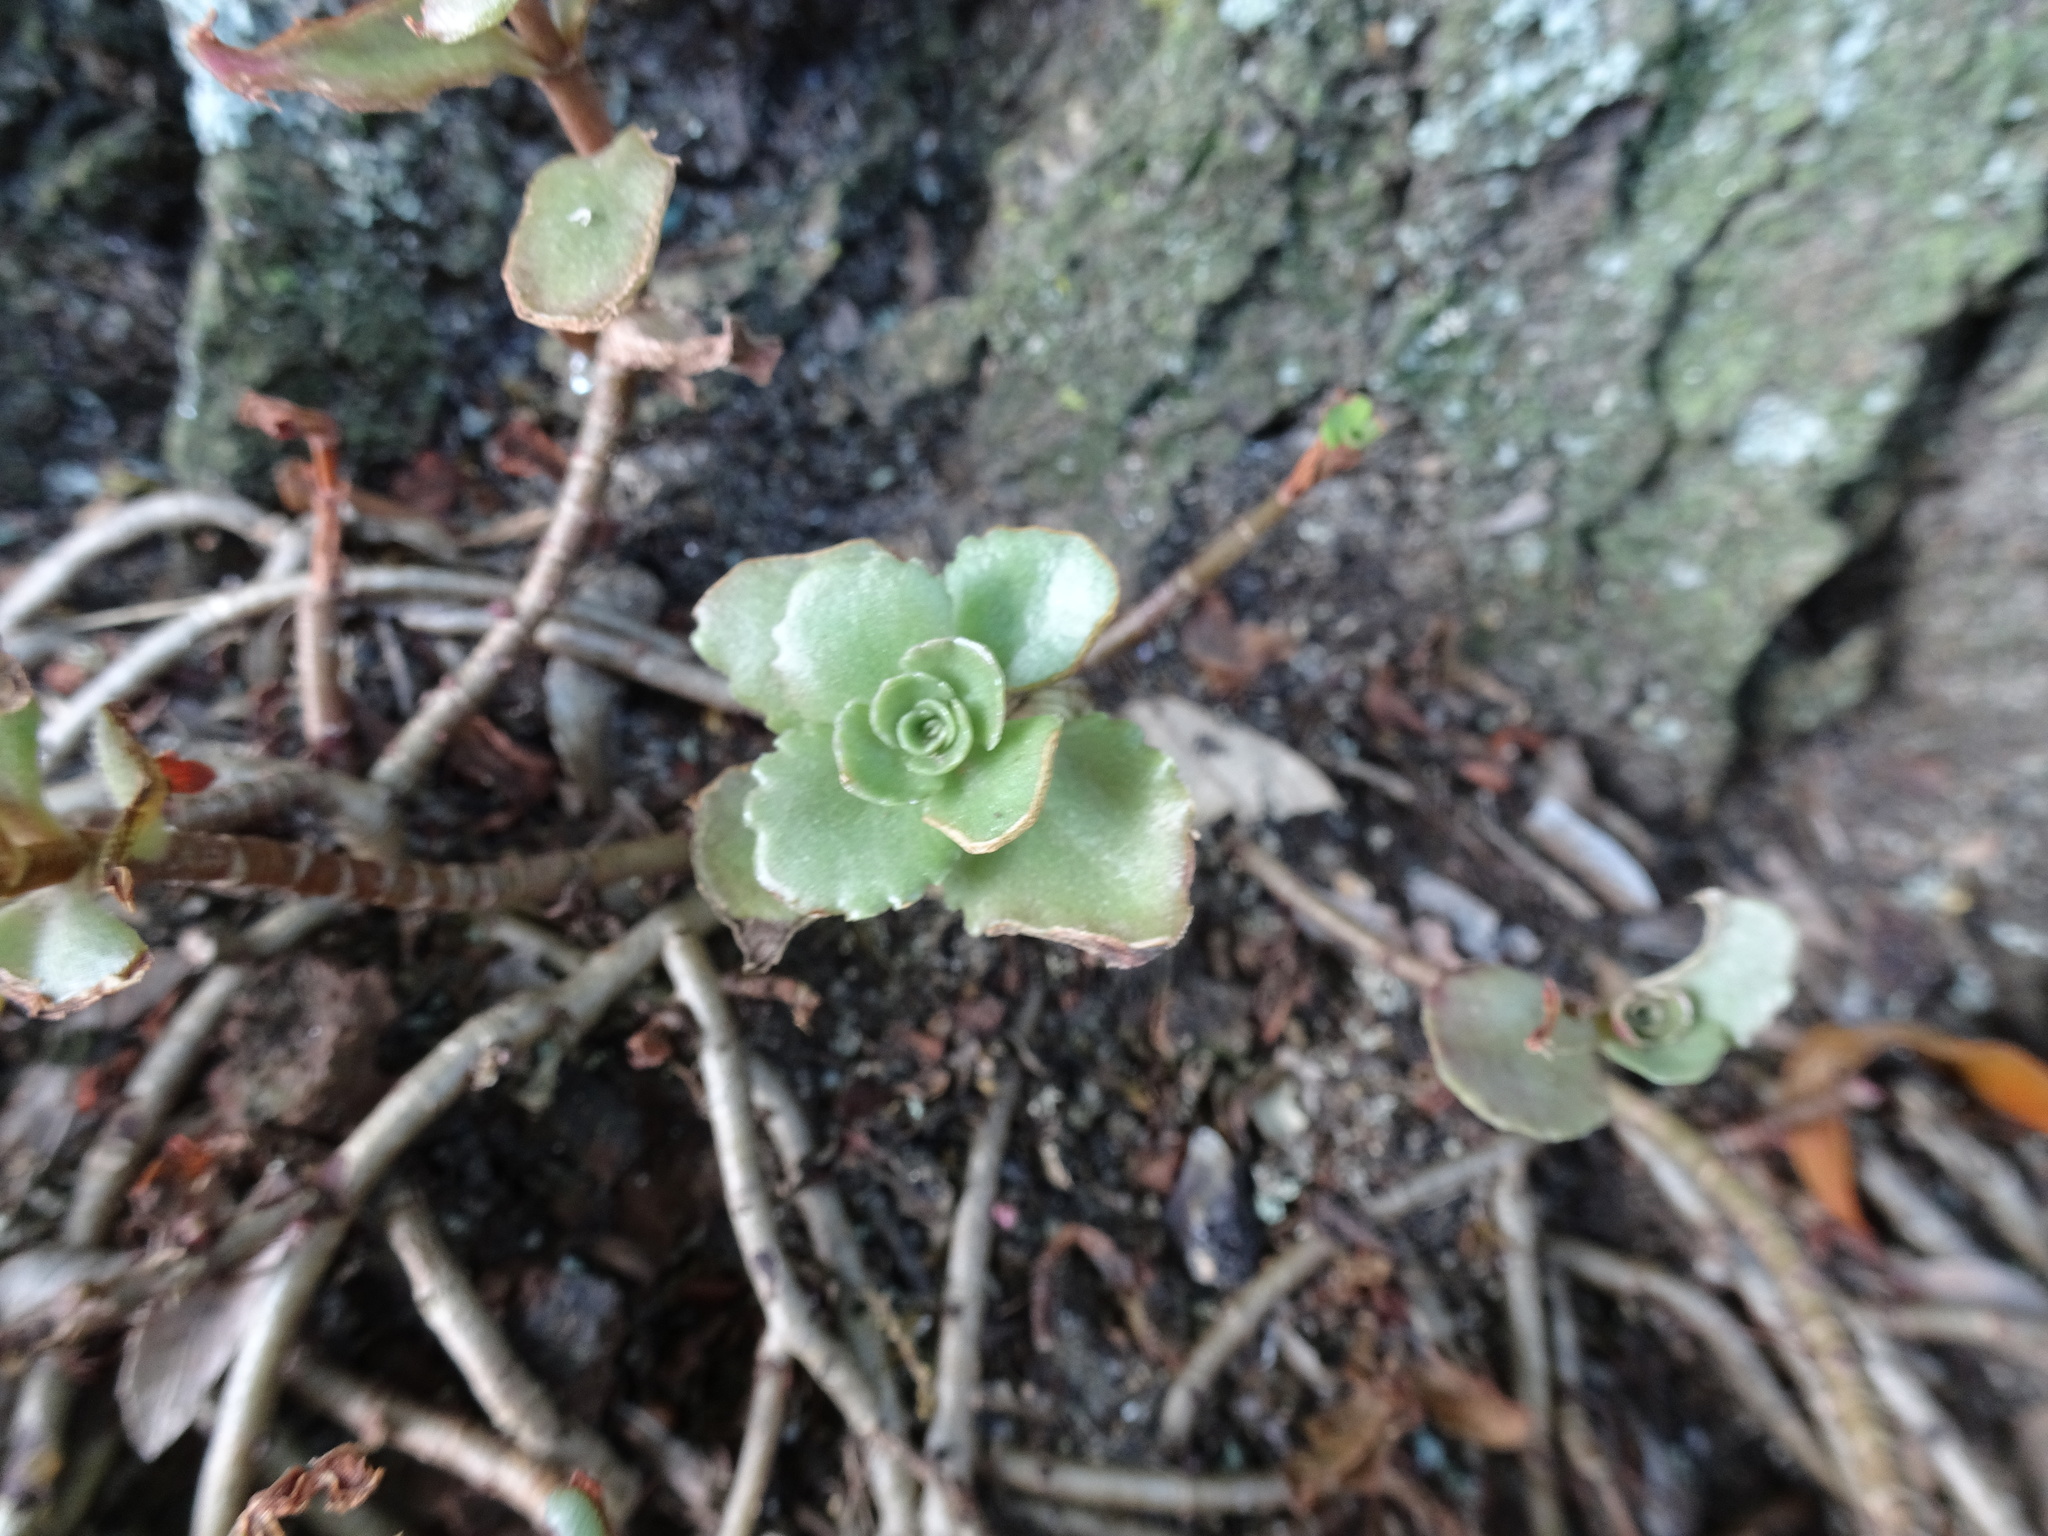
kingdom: Plantae
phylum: Tracheophyta
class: Magnoliopsida
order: Saxifragales
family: Crassulaceae
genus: Phedimus
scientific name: Phedimus spurius
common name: Caucasian stonecrop
